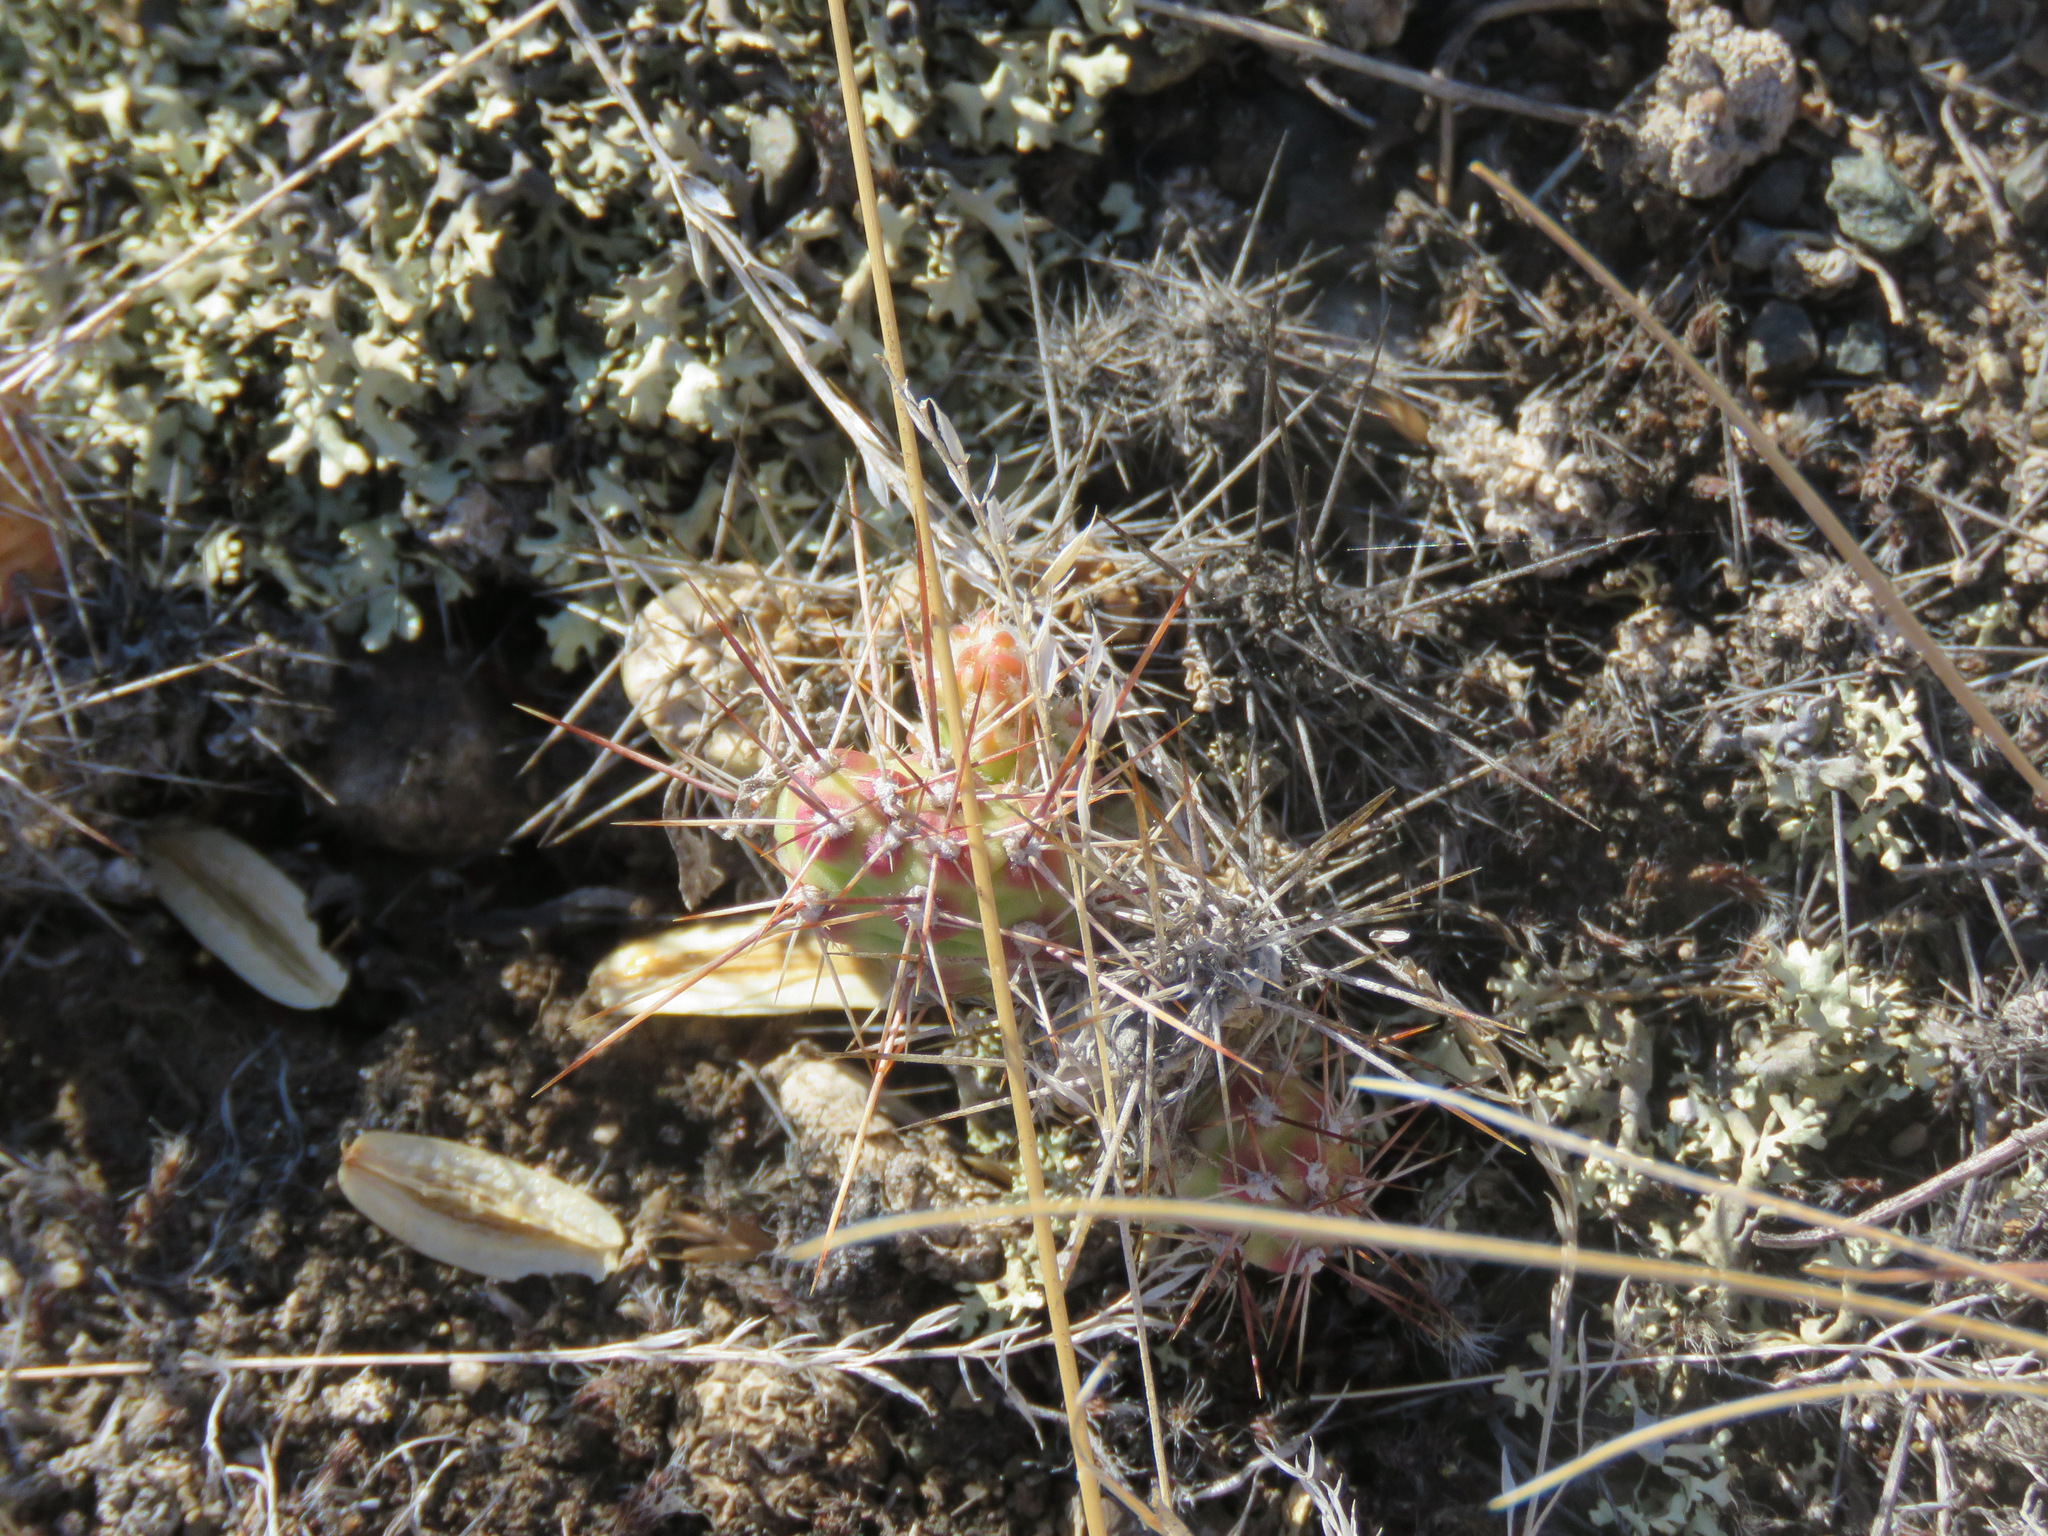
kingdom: Plantae
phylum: Tracheophyta
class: Magnoliopsida
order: Caryophyllales
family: Cactaceae
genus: Opuntia
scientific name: Opuntia fragilis
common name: Brittle cactus
